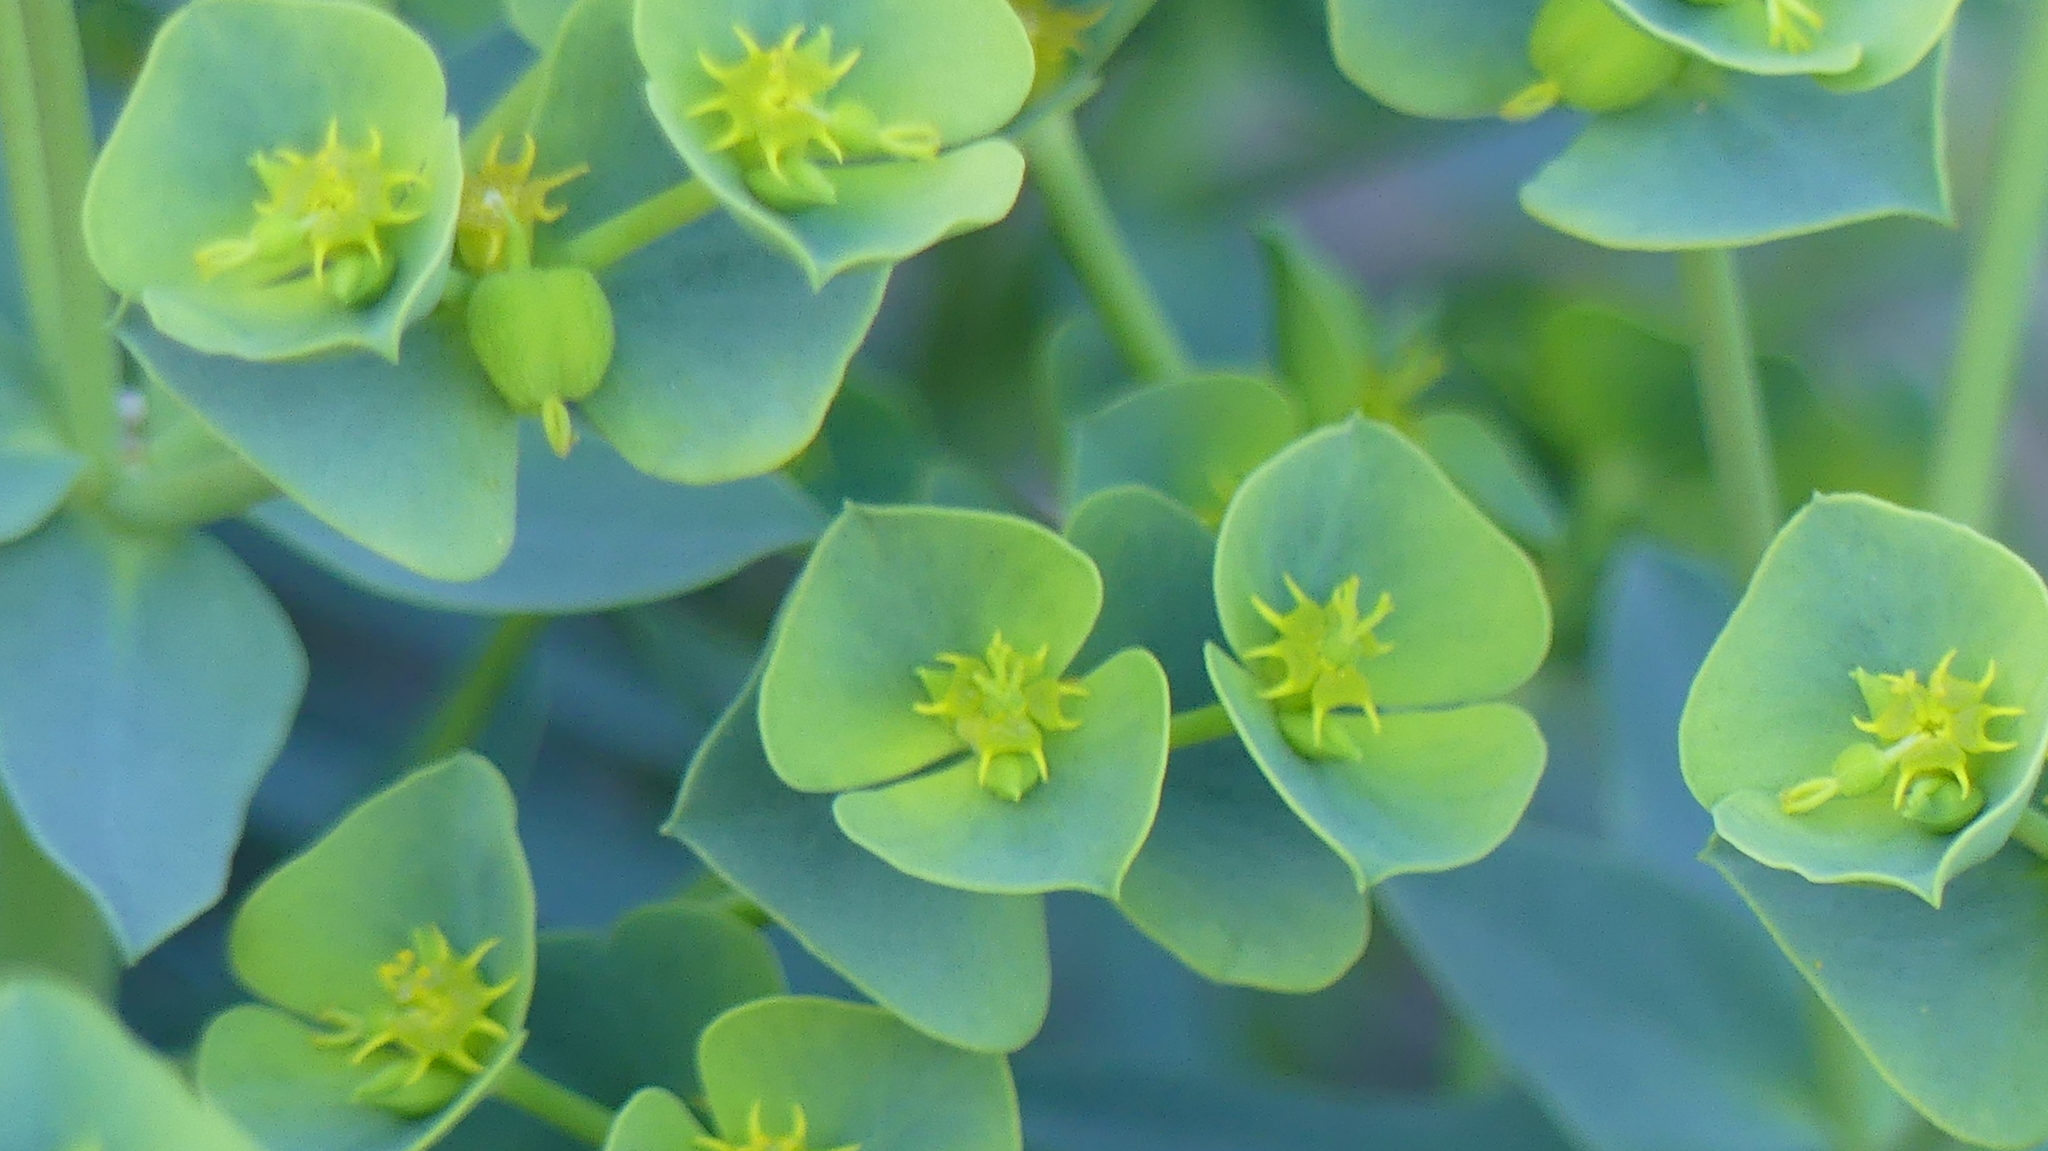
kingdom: Plantae
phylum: Tracheophyta
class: Magnoliopsida
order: Malpighiales
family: Euphorbiaceae
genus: Euphorbia
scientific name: Euphorbia segetalis
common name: Corn spurge
